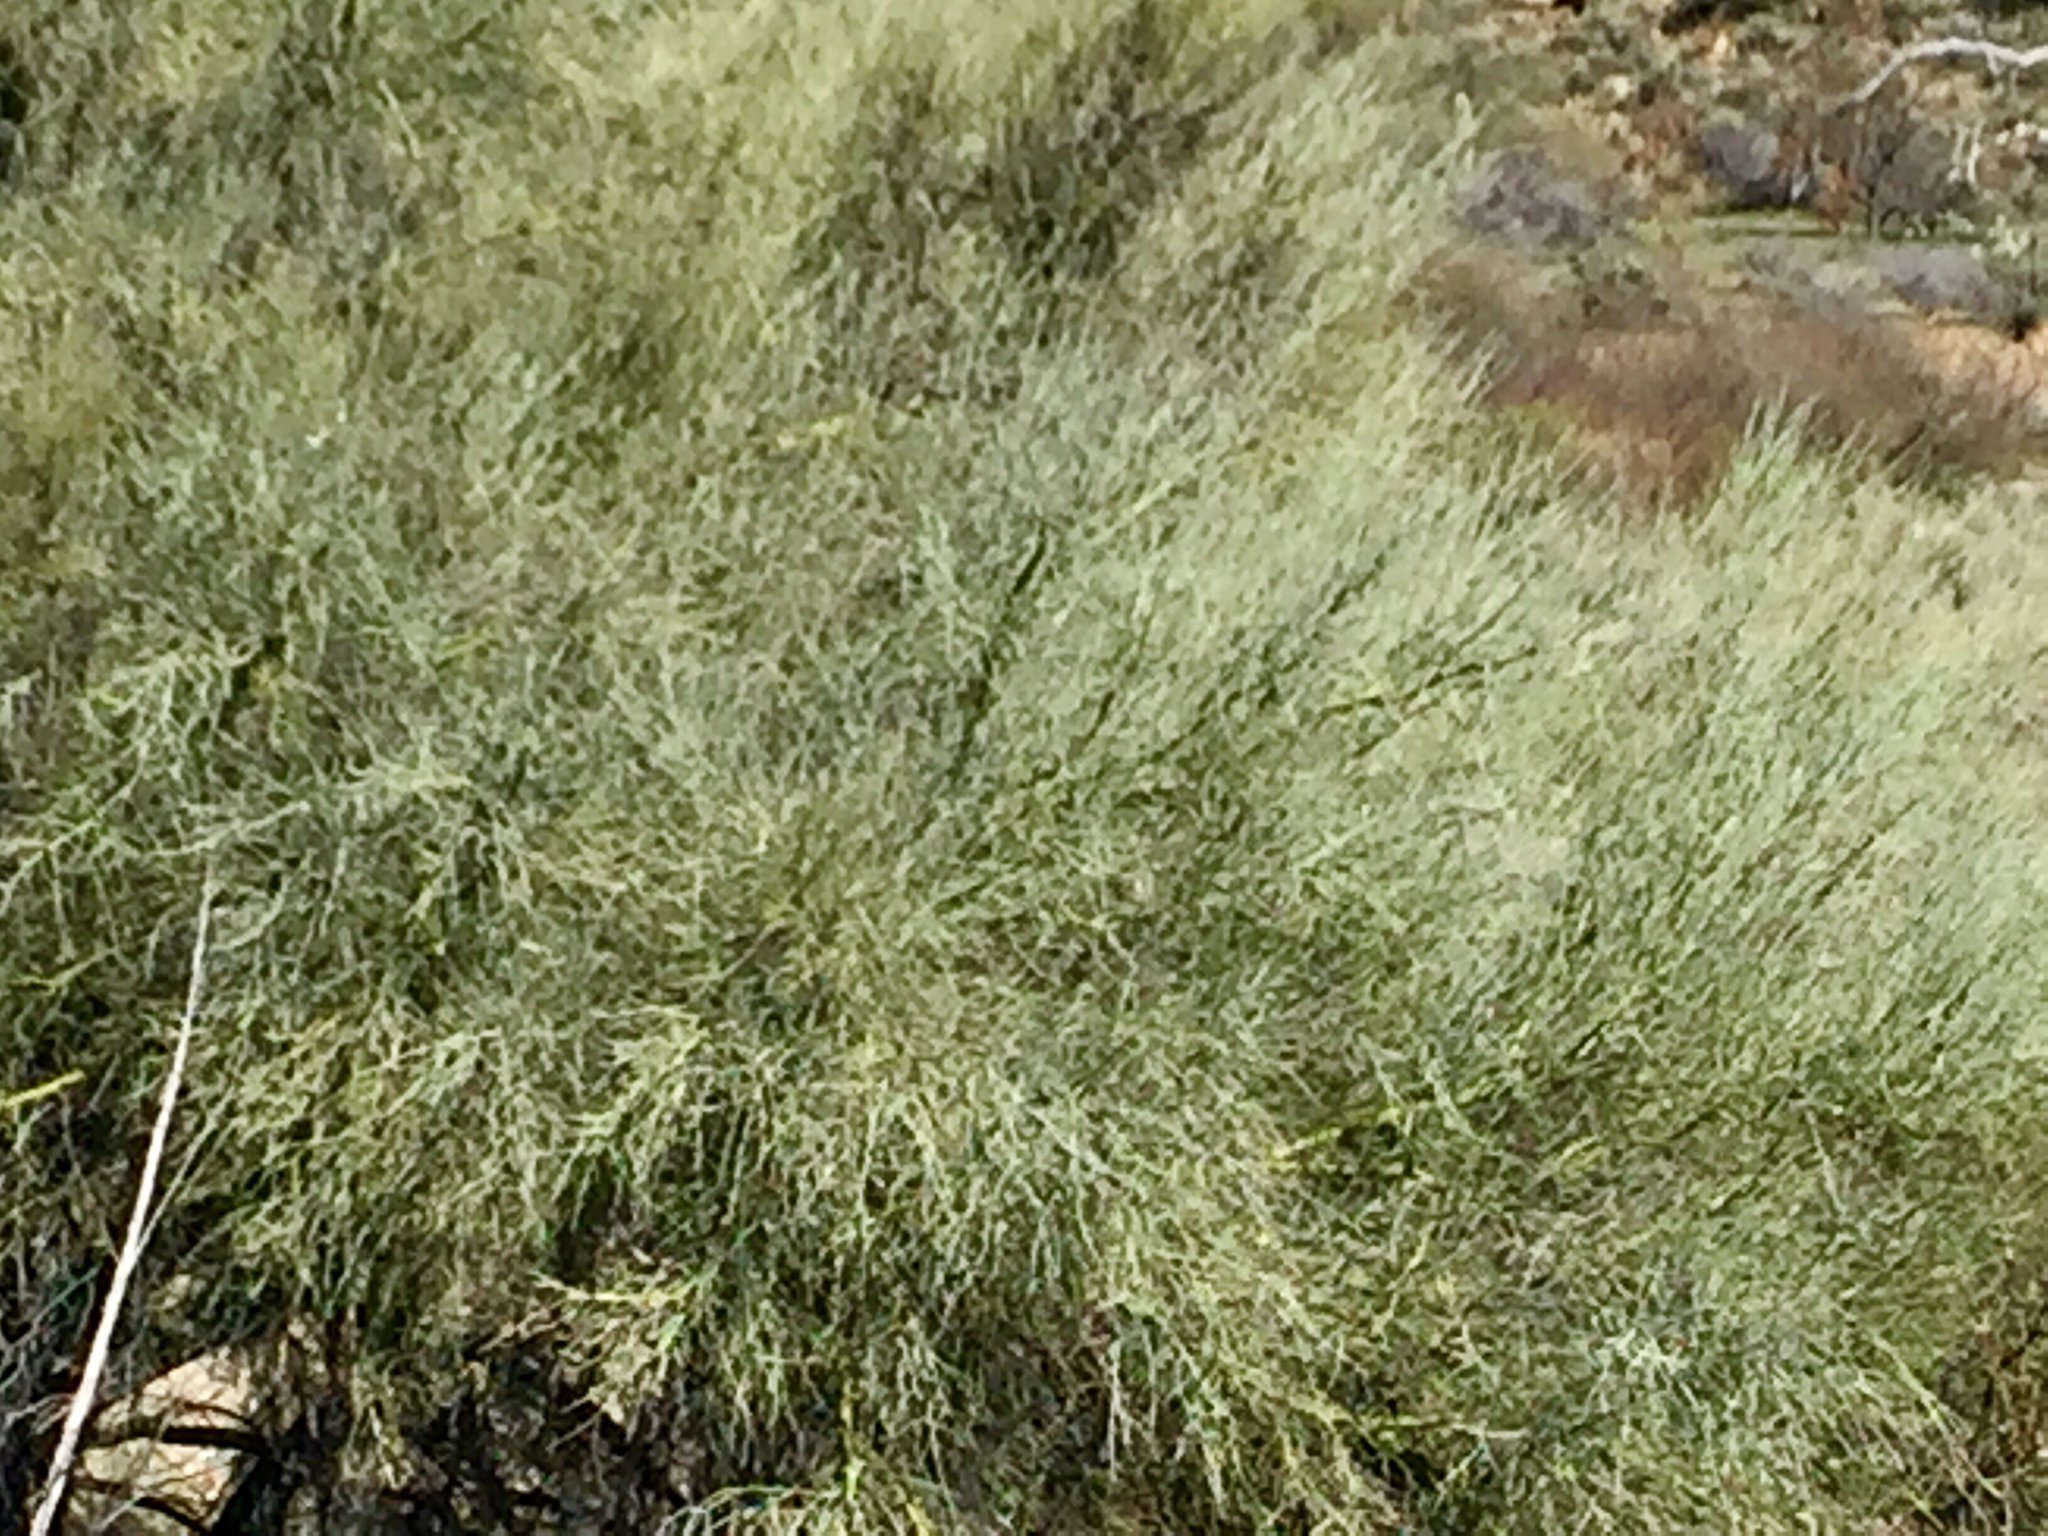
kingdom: Plantae
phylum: Tracheophyta
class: Magnoliopsida
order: Fabales
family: Fabaceae
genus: Parkinsonia
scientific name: Parkinsonia florida
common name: Blue paloverde
